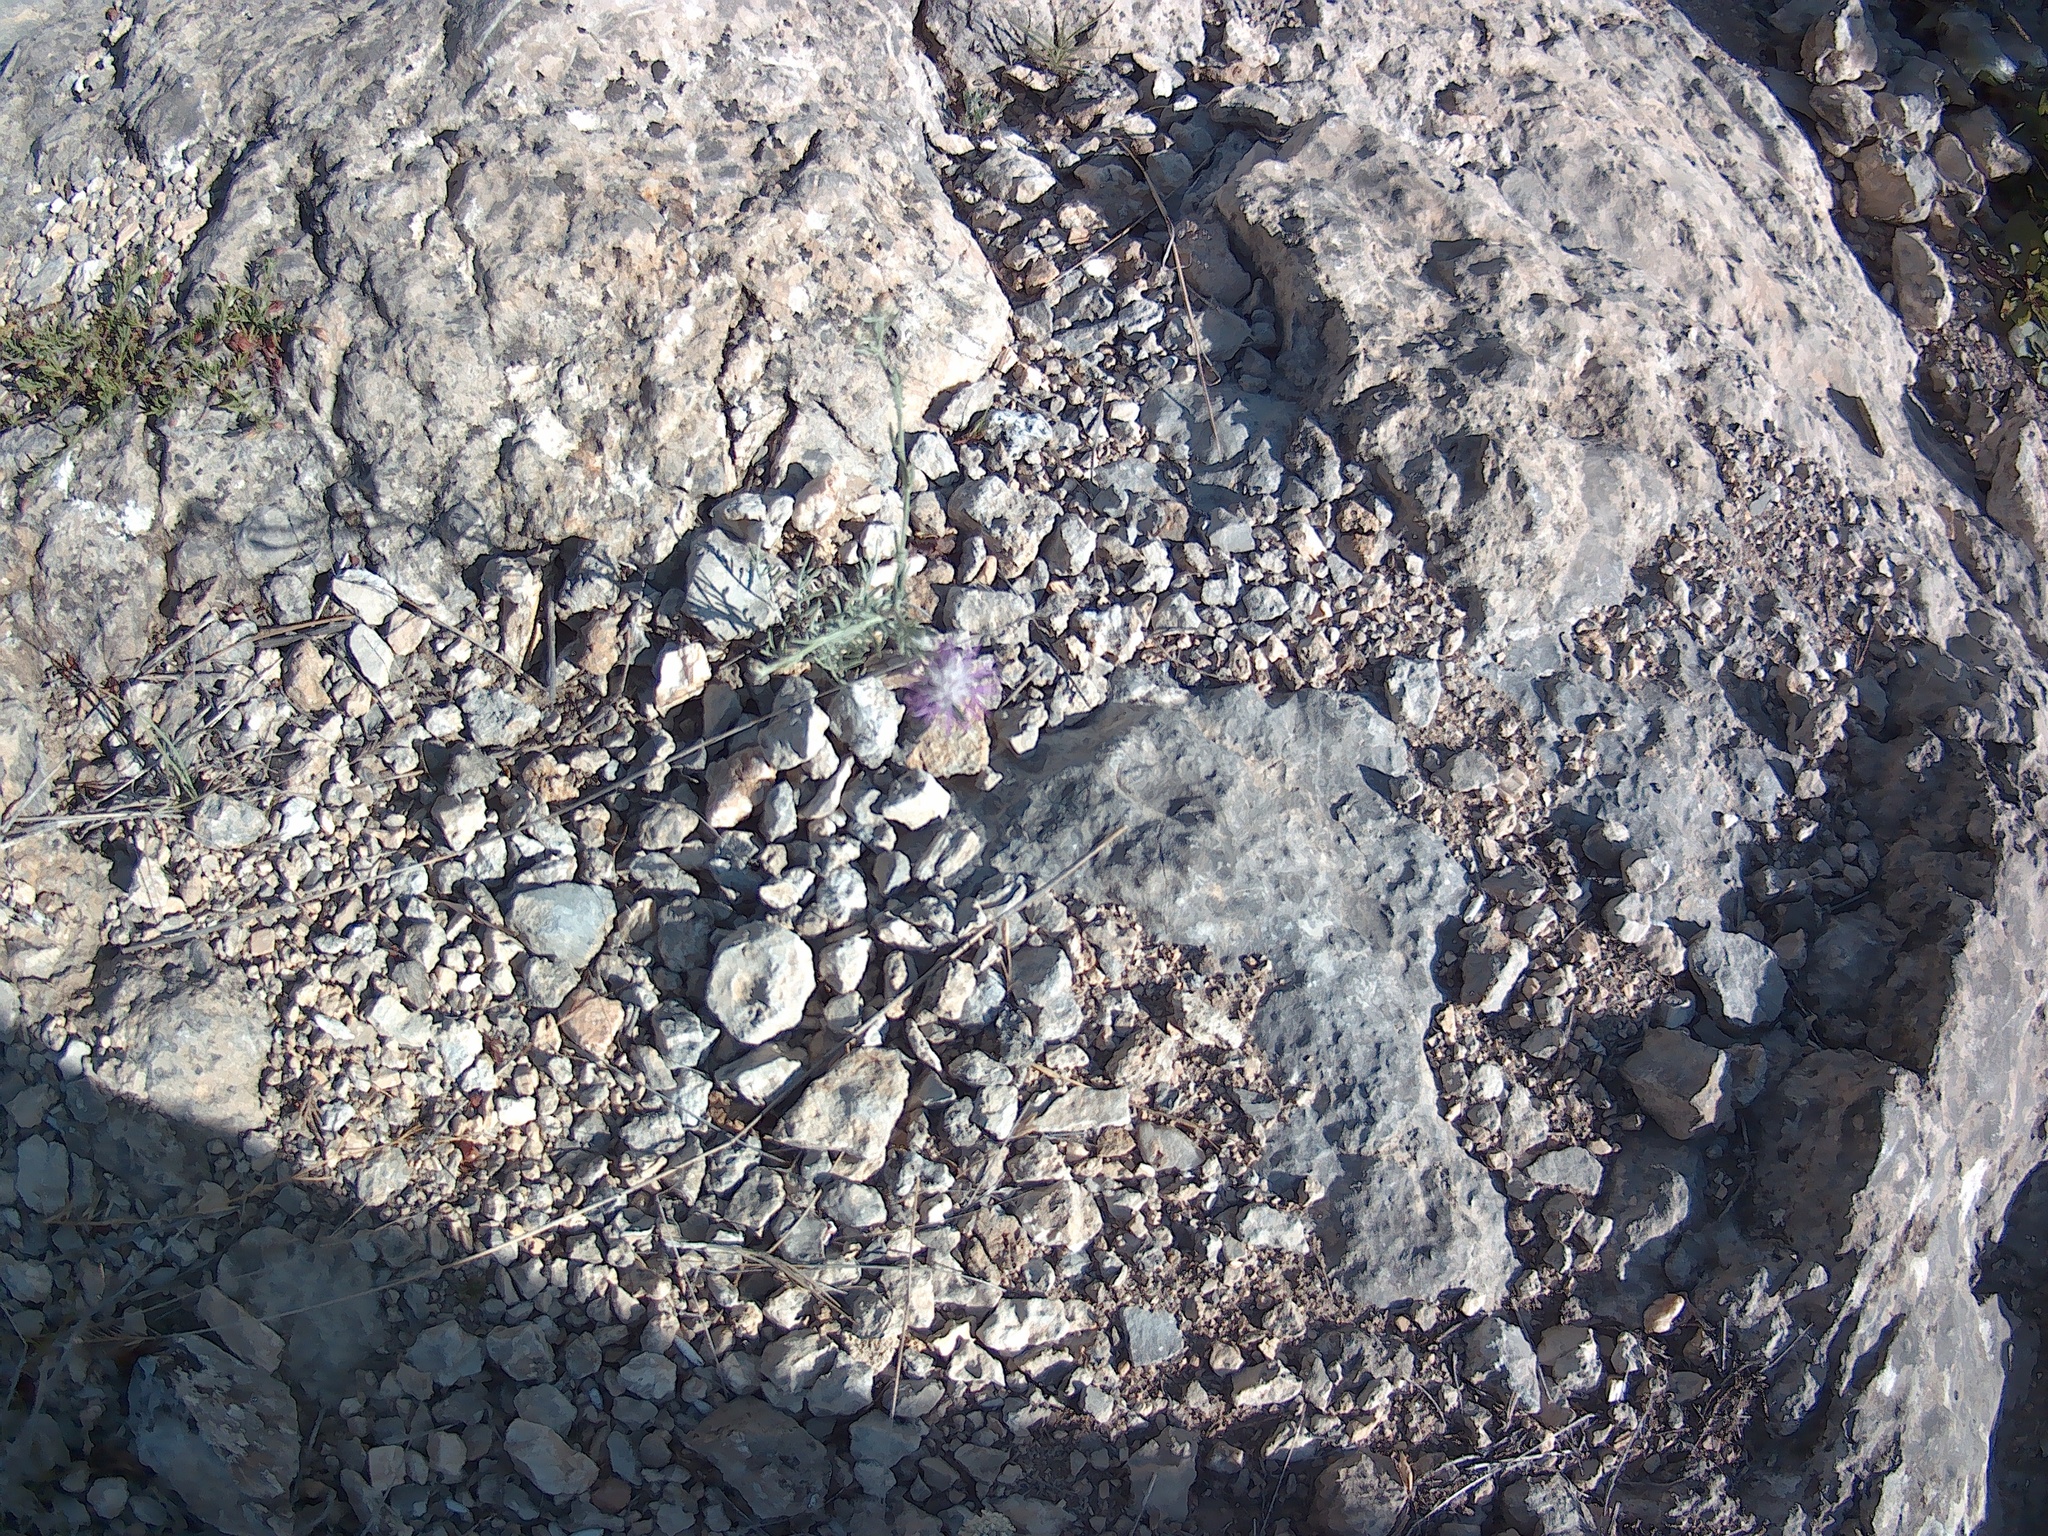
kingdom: Plantae
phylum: Tracheophyta
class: Magnoliopsida
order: Asterales
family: Asteraceae
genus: Jurinea
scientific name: Jurinea stoechadifolia
